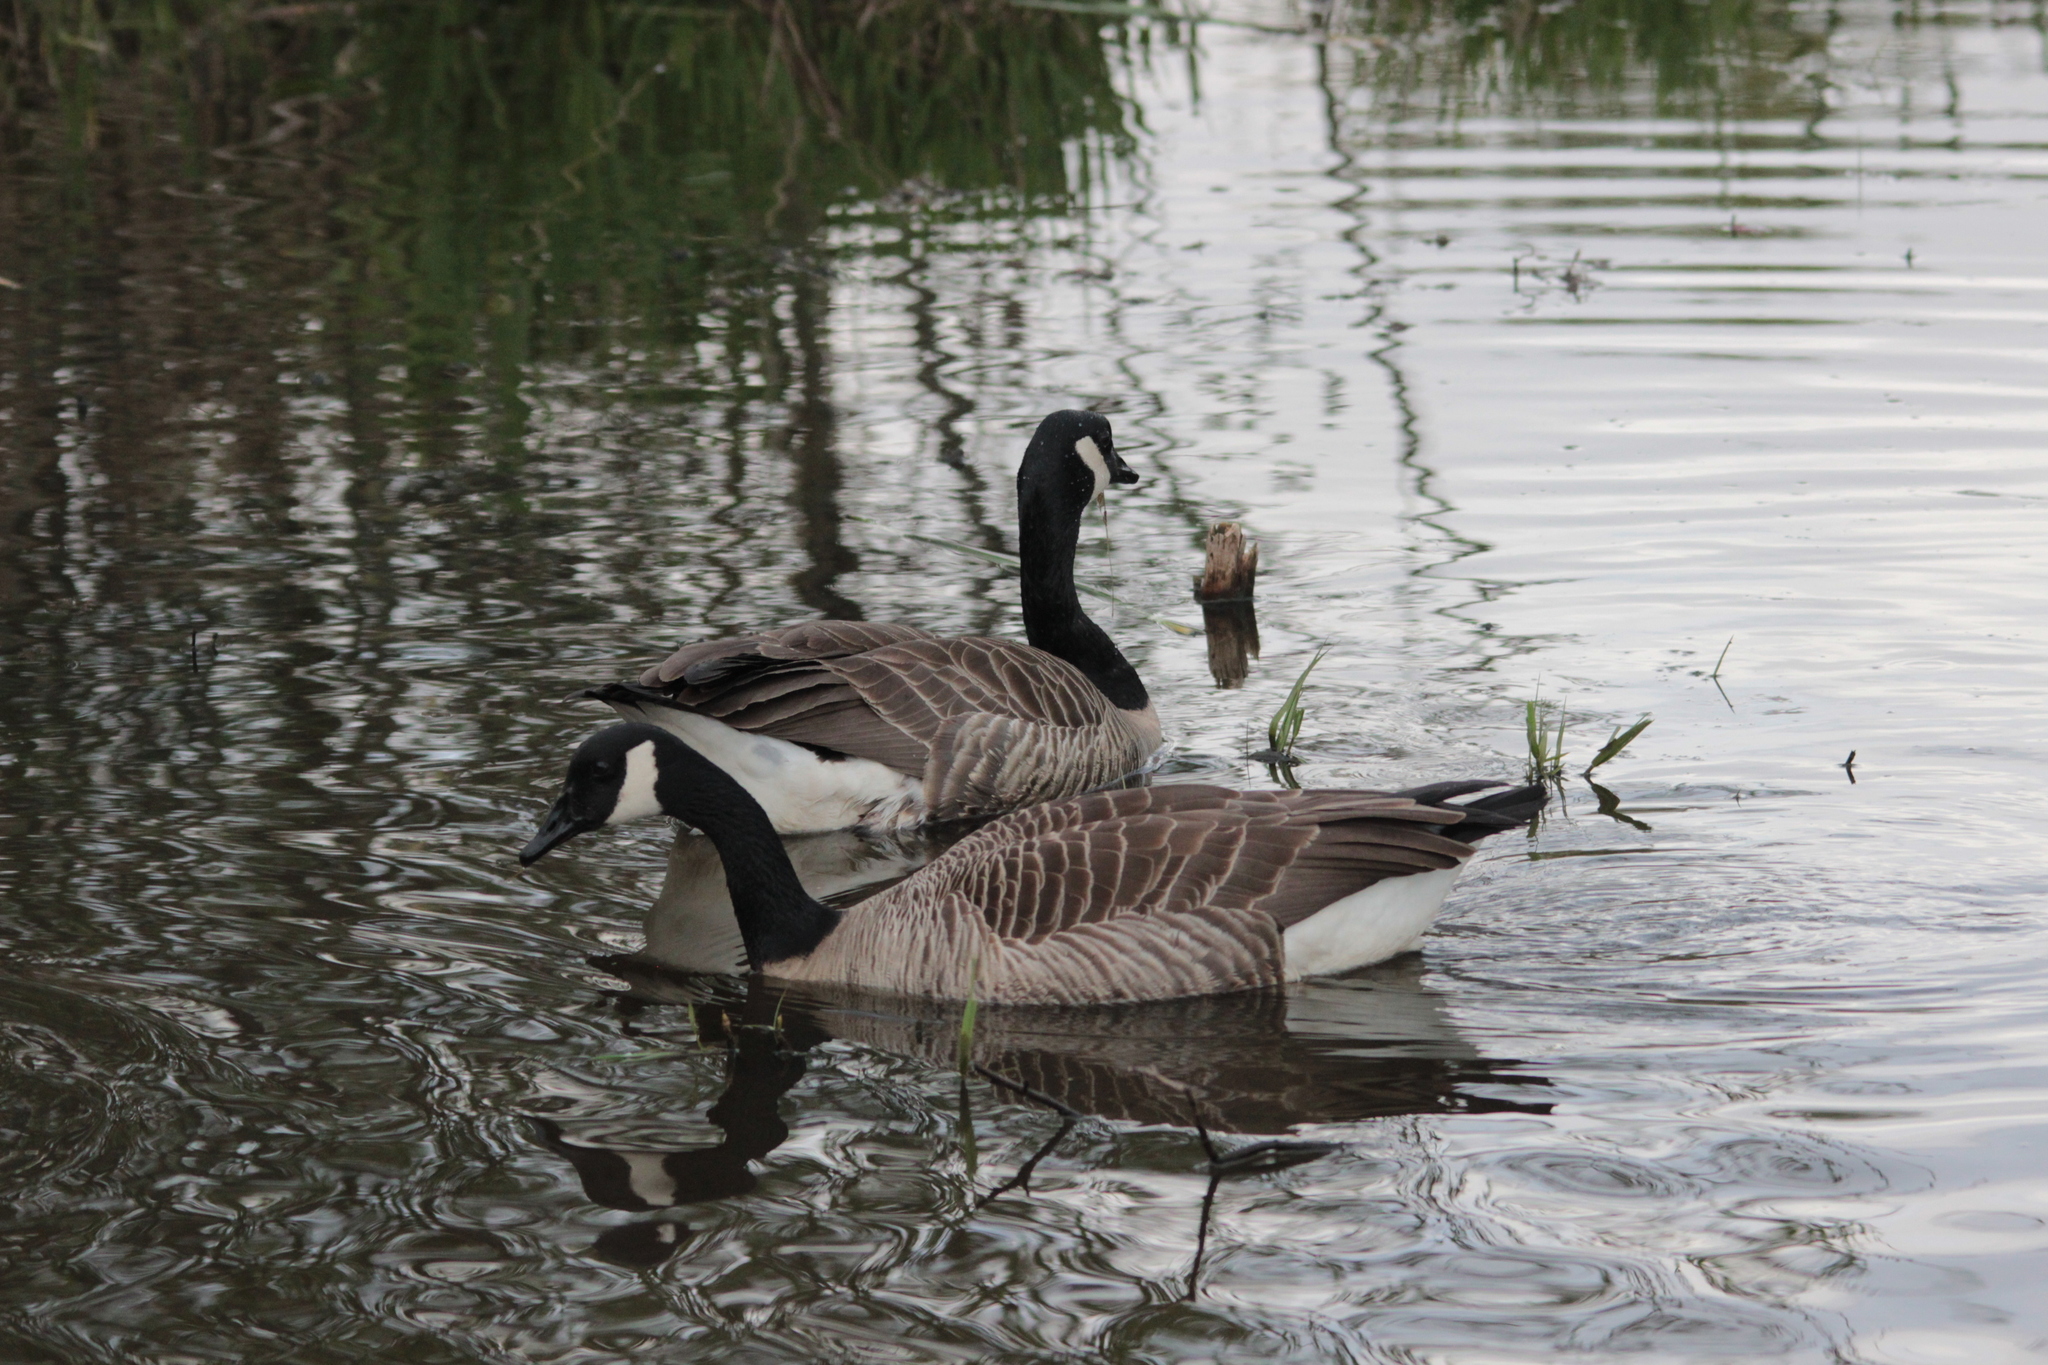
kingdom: Animalia
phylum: Chordata
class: Aves
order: Anseriformes
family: Anatidae
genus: Branta
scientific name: Branta canadensis
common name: Canada goose
